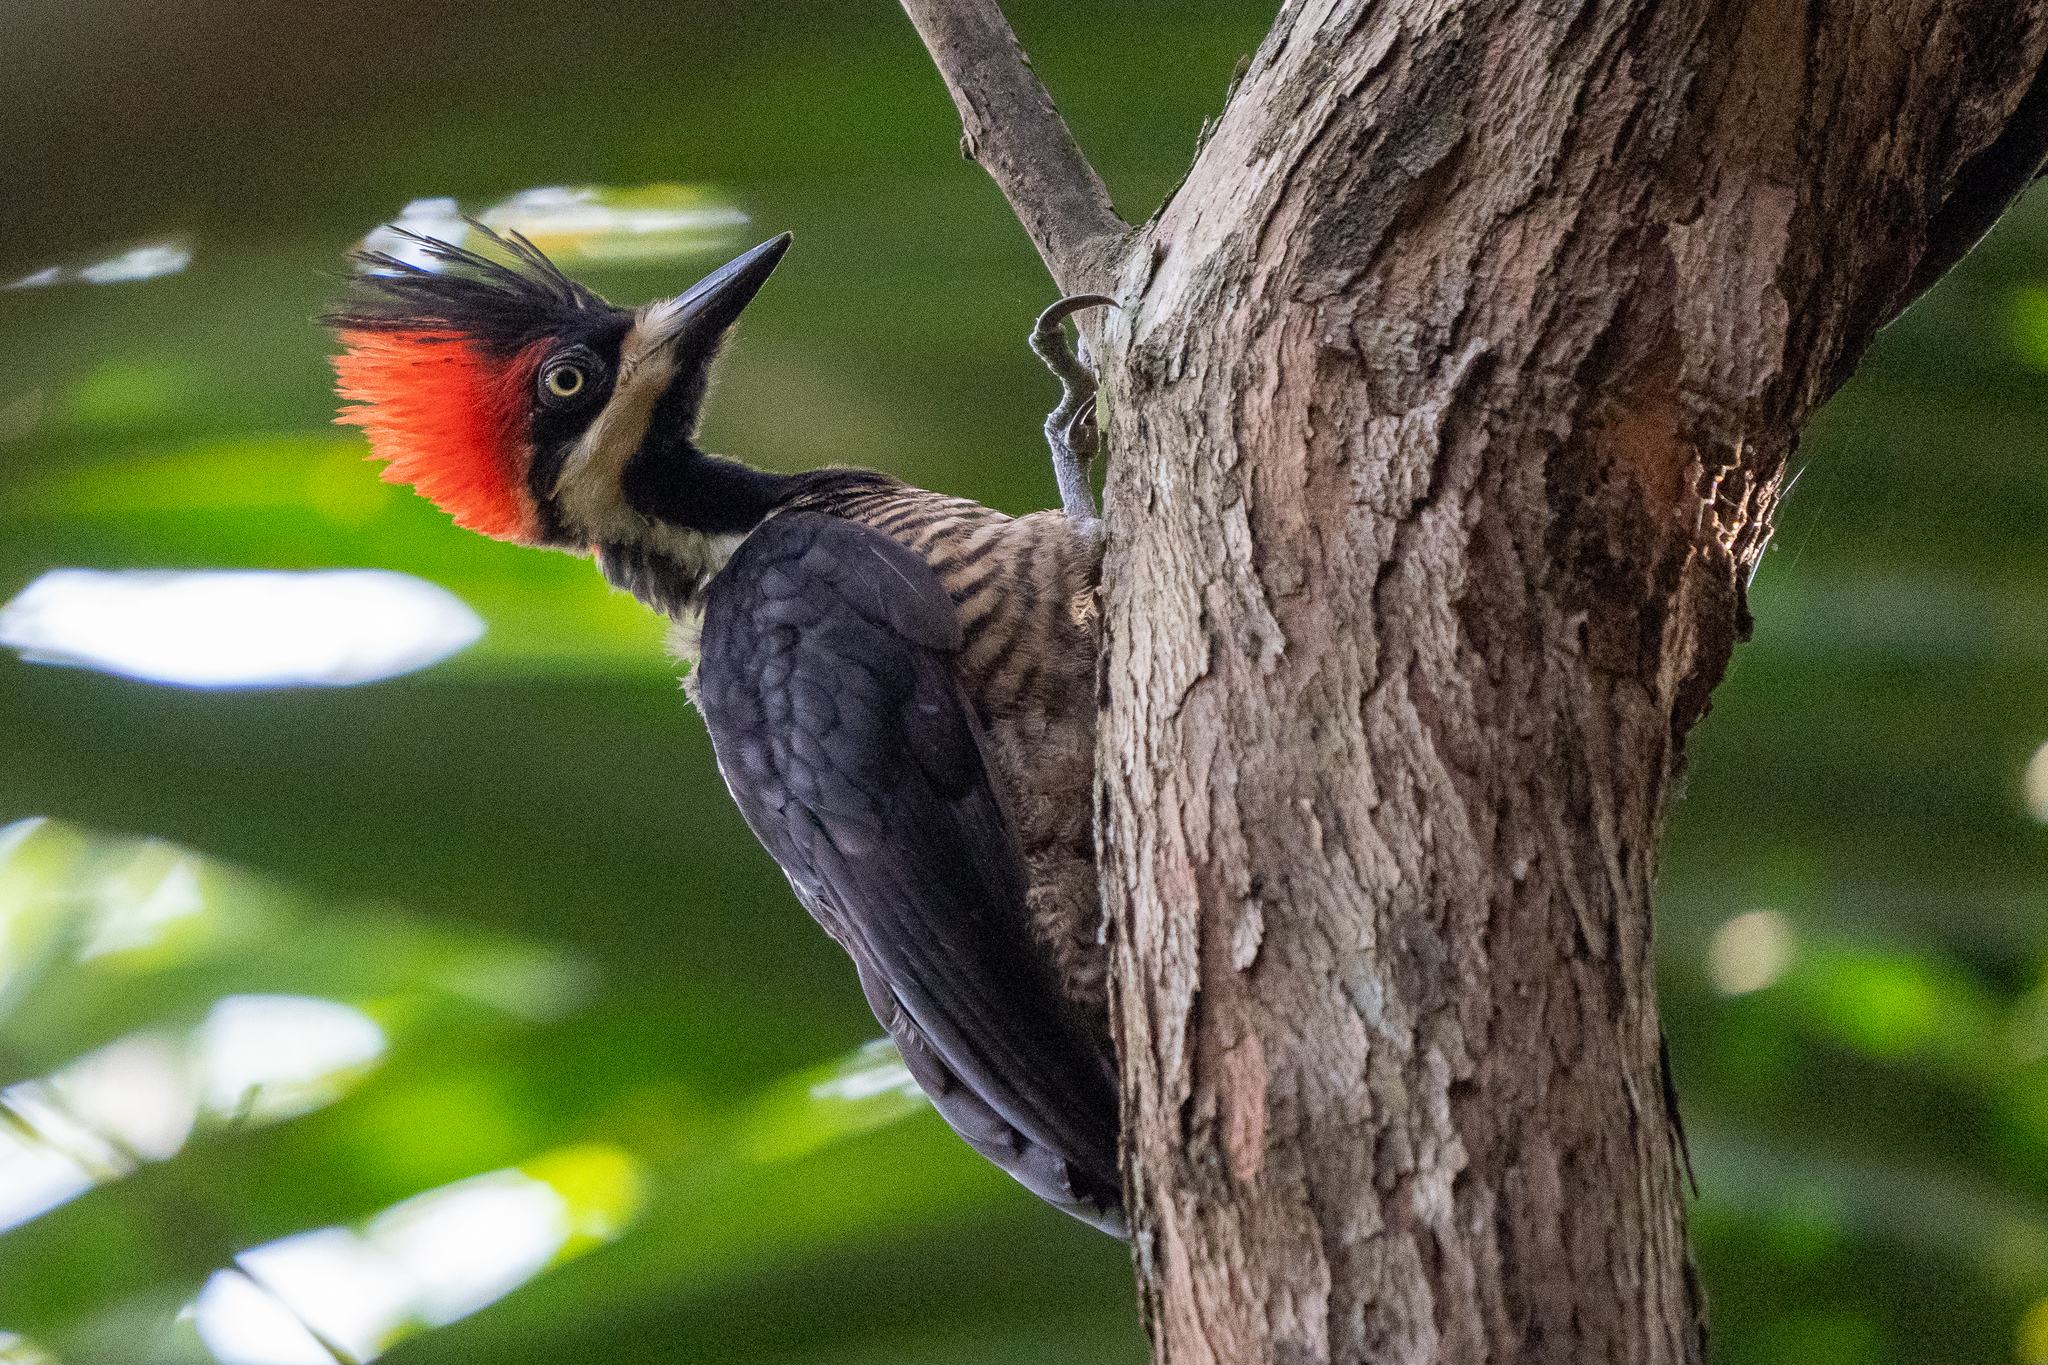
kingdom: Animalia
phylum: Chordata
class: Aves
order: Piciformes
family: Picidae
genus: Campephilus
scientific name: Campephilus melanoleucos
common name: Crimson-crested woodpecker
